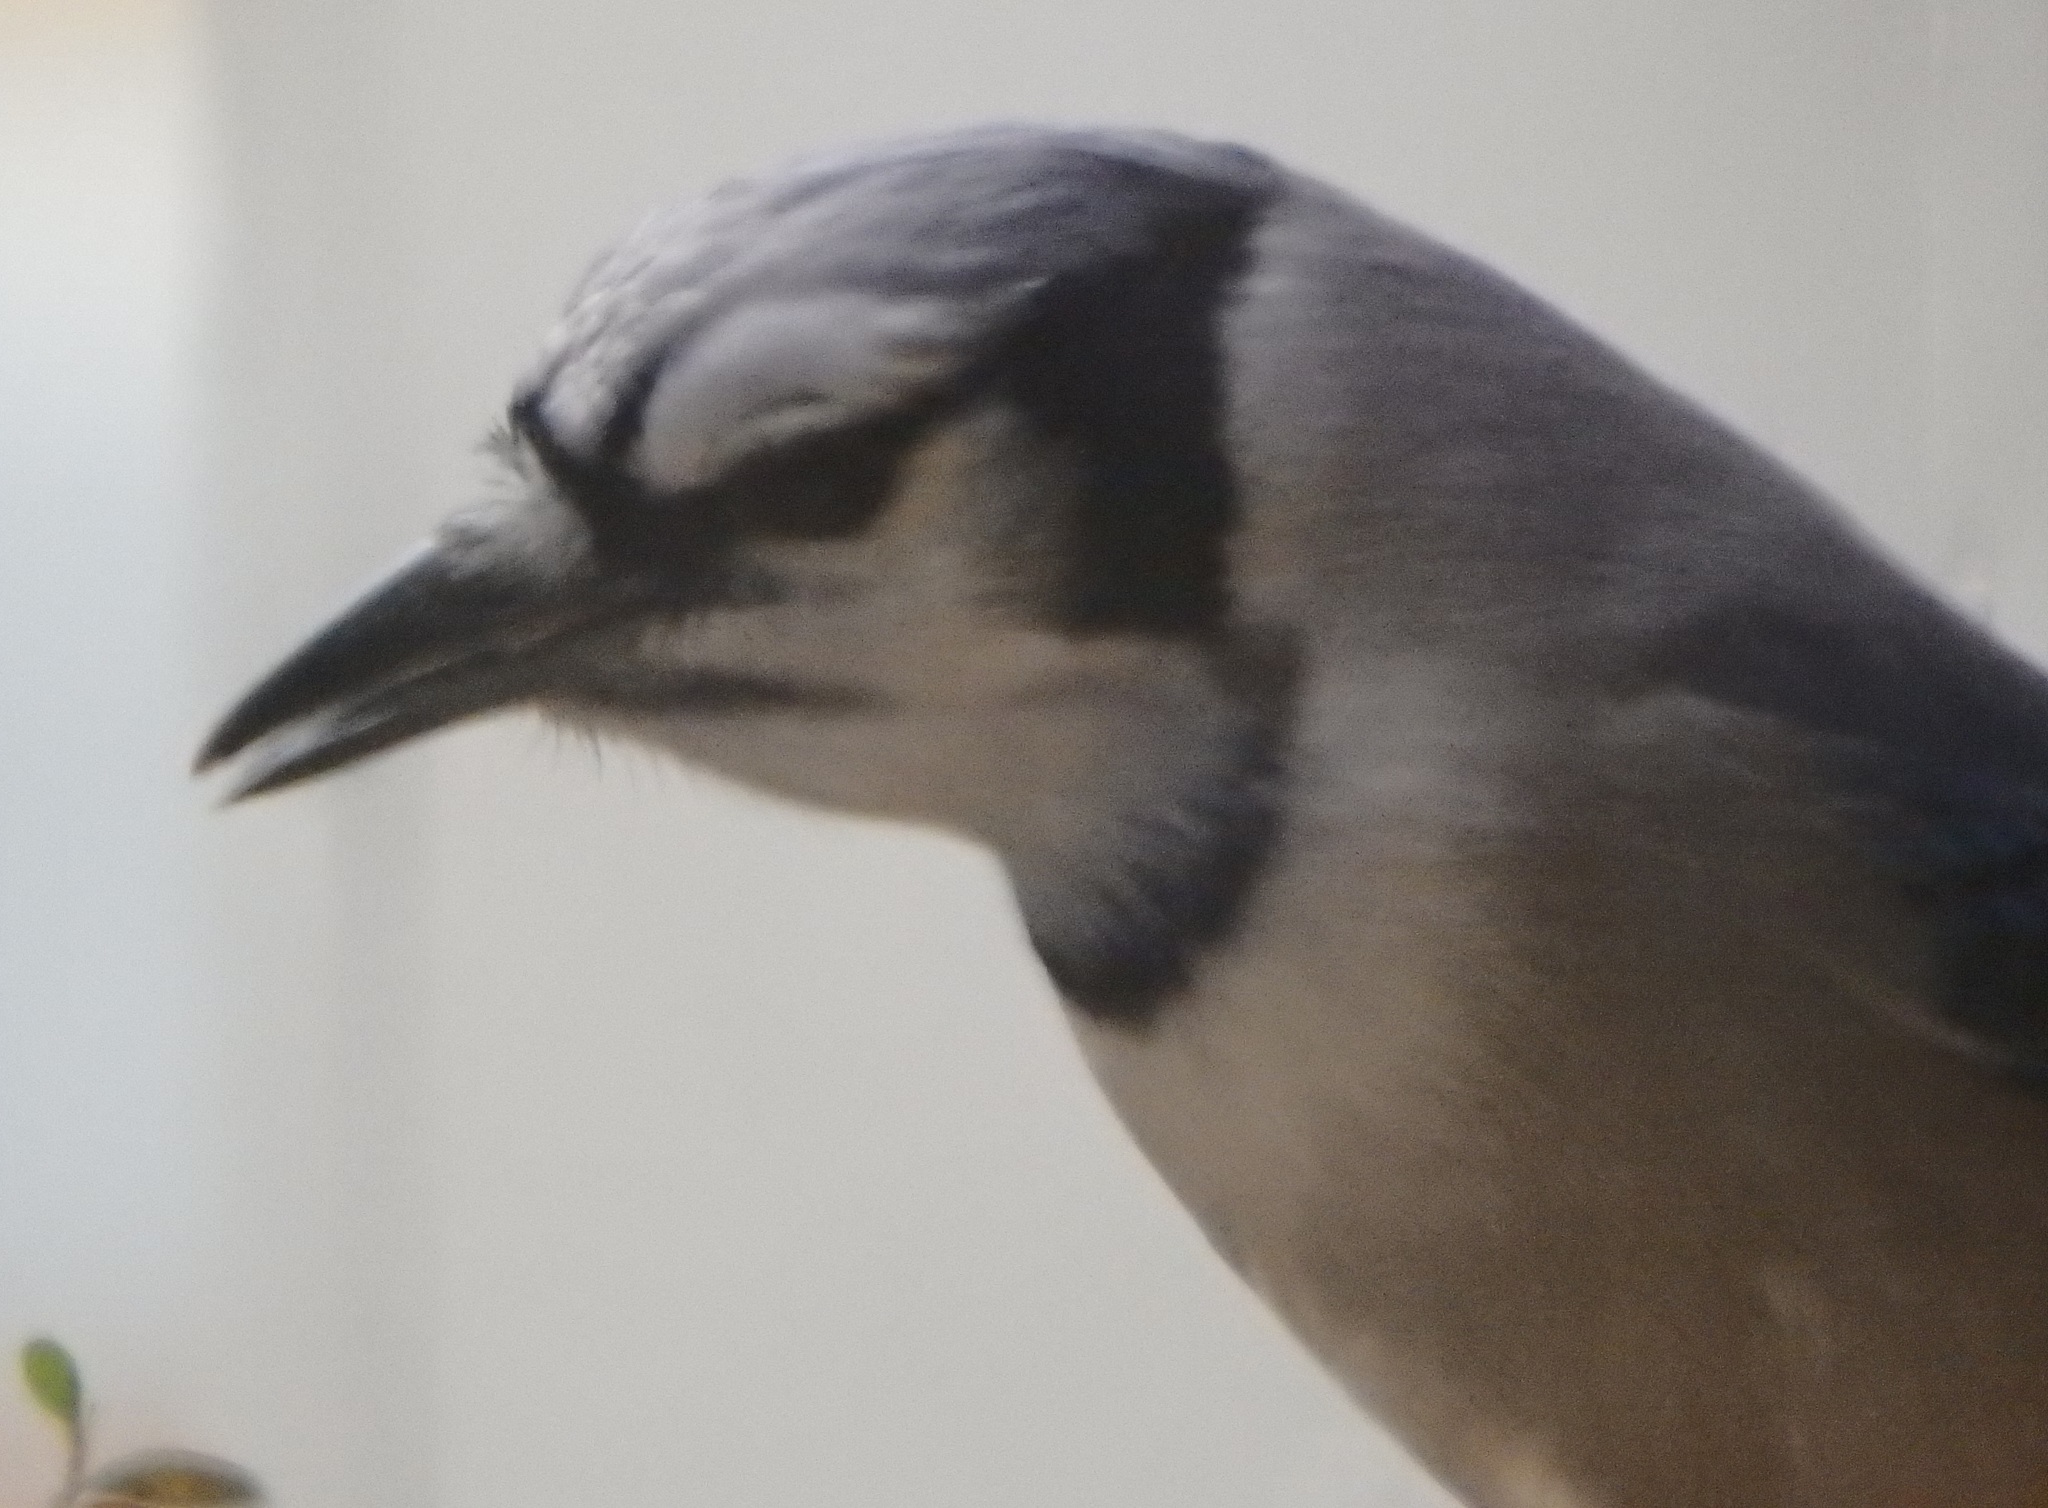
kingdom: Animalia
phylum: Chordata
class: Aves
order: Passeriformes
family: Corvidae
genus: Cyanocitta
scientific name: Cyanocitta cristata
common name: Blue jay
